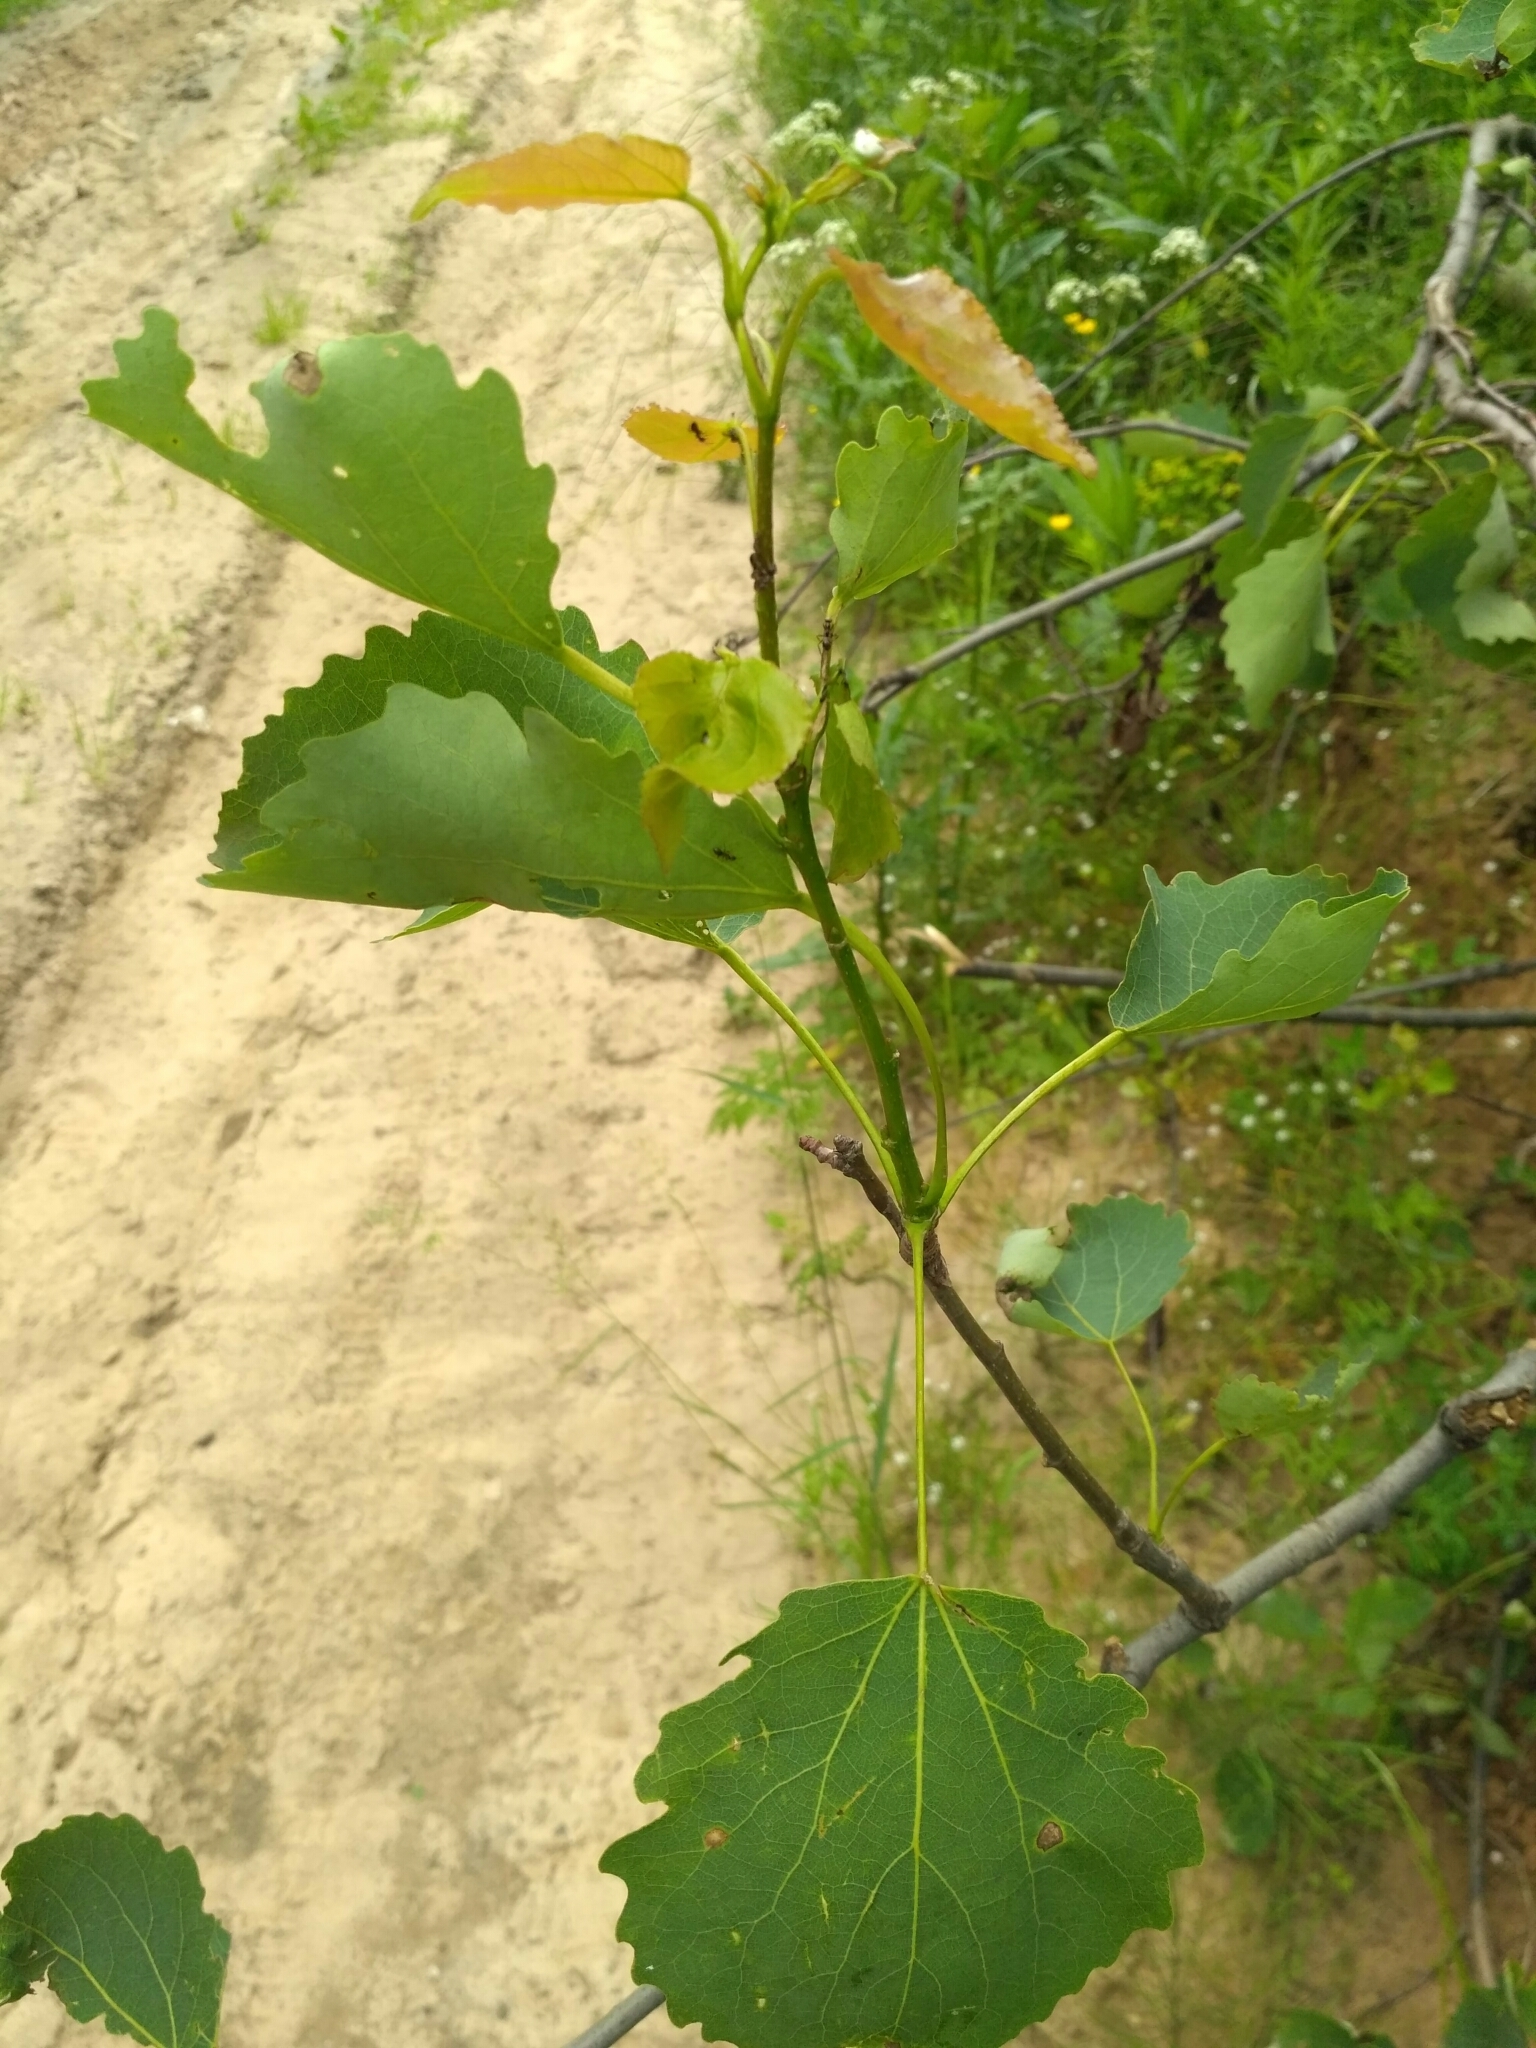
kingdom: Plantae
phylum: Tracheophyta
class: Magnoliopsida
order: Malpighiales
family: Salicaceae
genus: Populus
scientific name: Populus tremula
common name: European aspen
